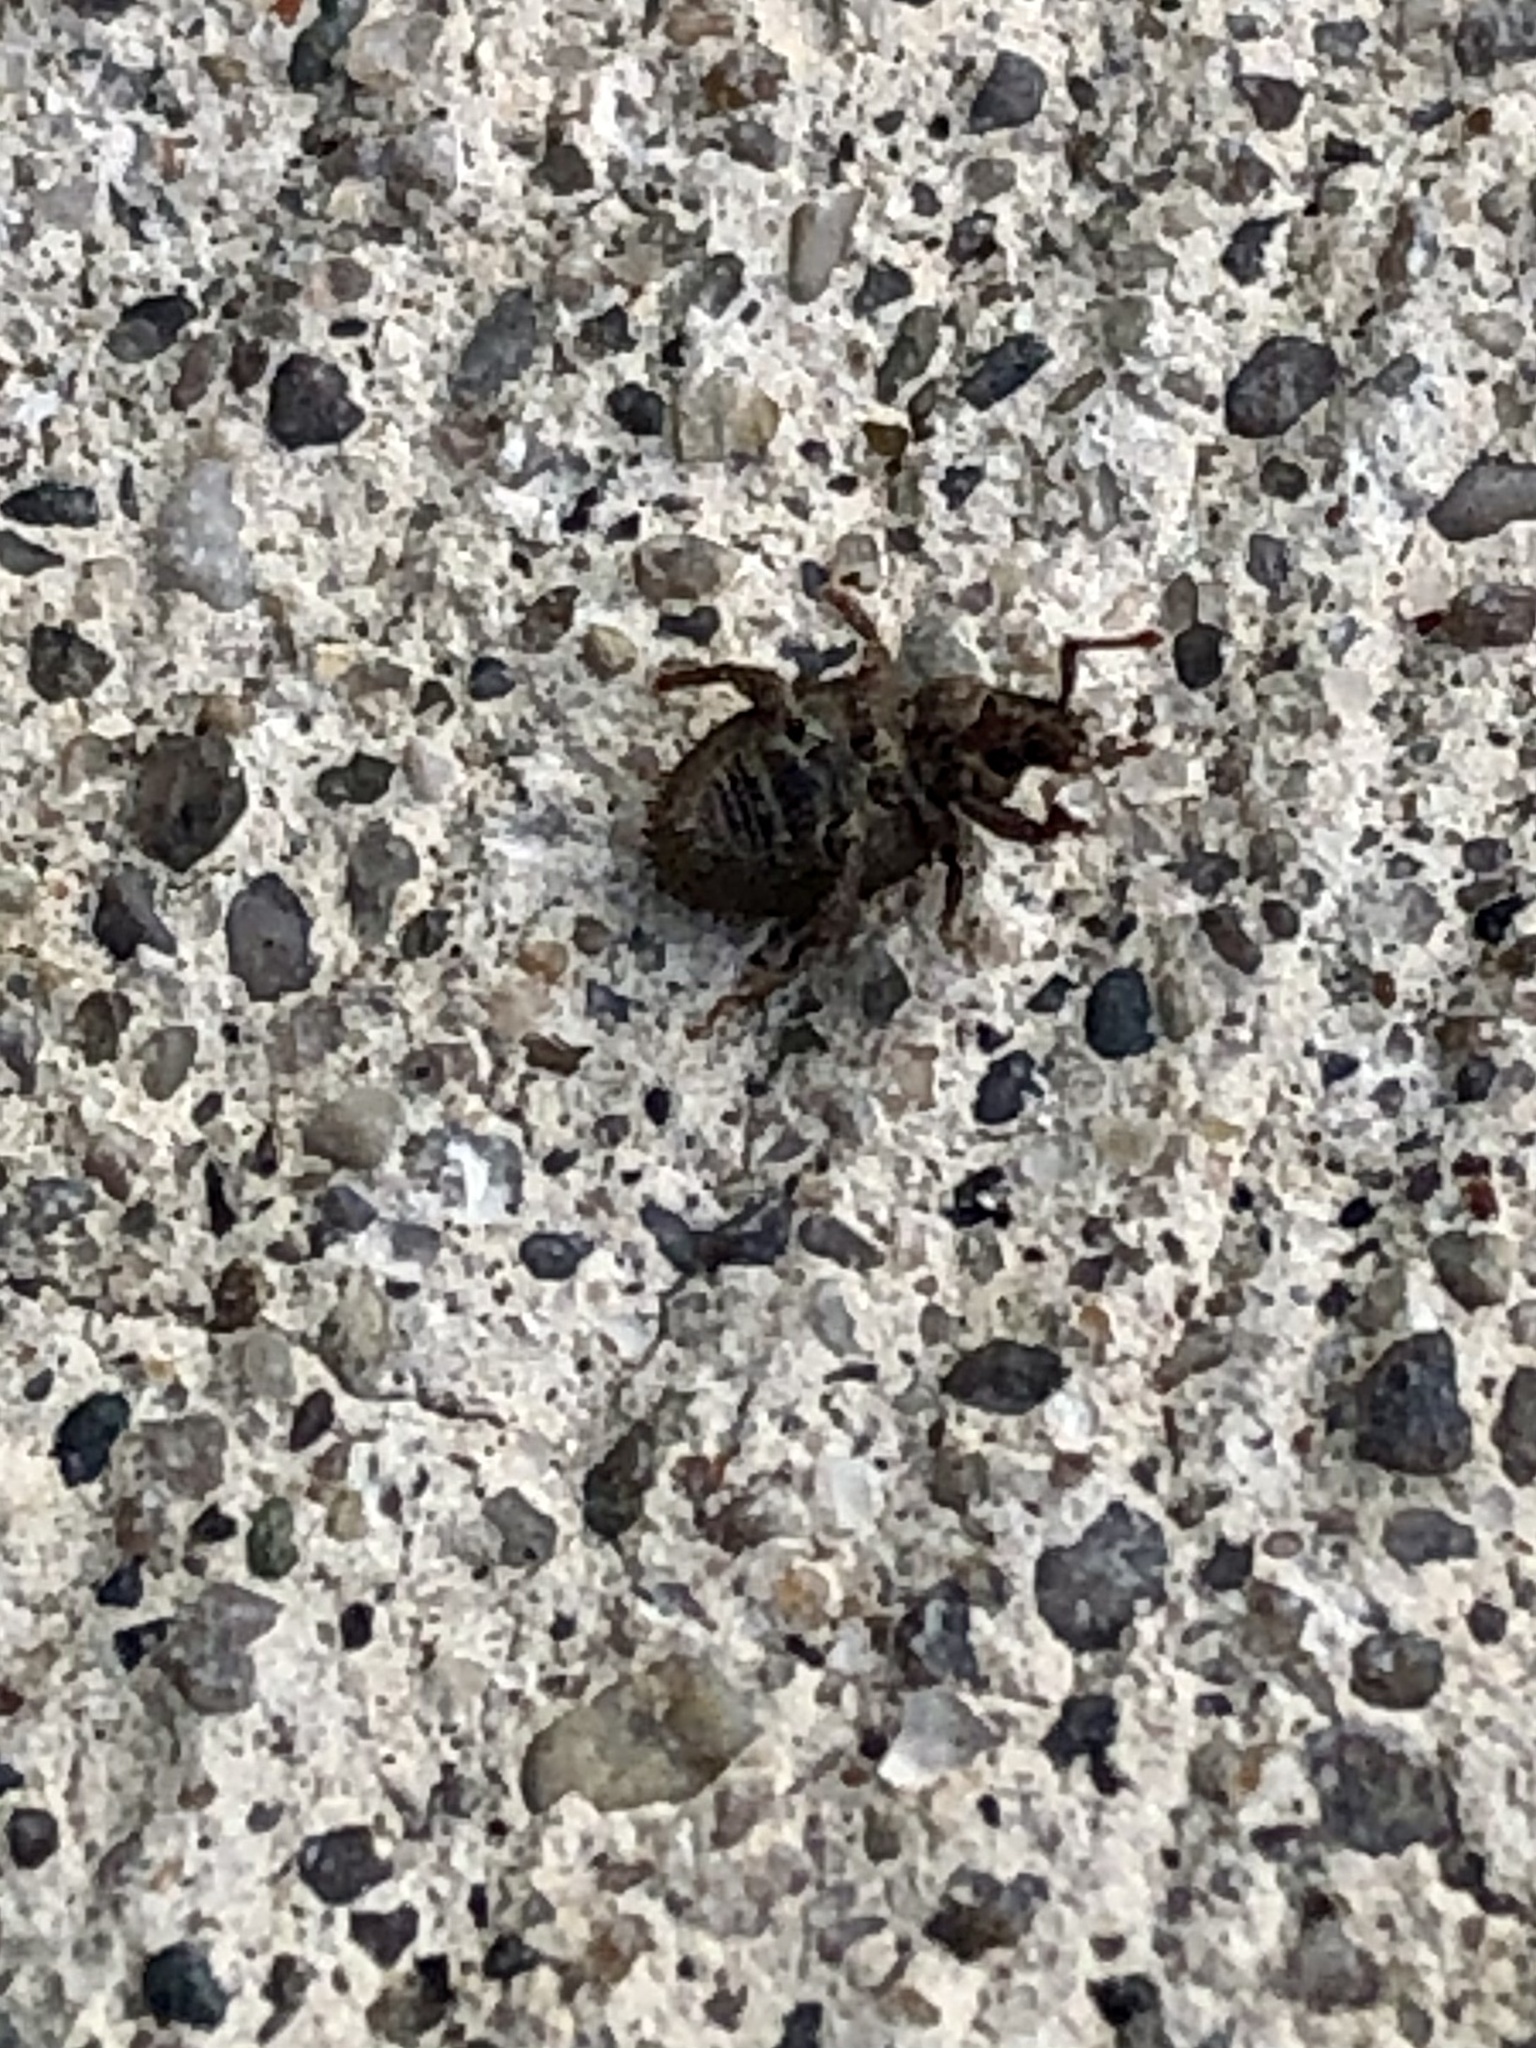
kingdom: Animalia
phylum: Arthropoda
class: Insecta
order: Coleoptera
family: Curculionidae
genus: Romualdius
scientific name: Romualdius scaber
